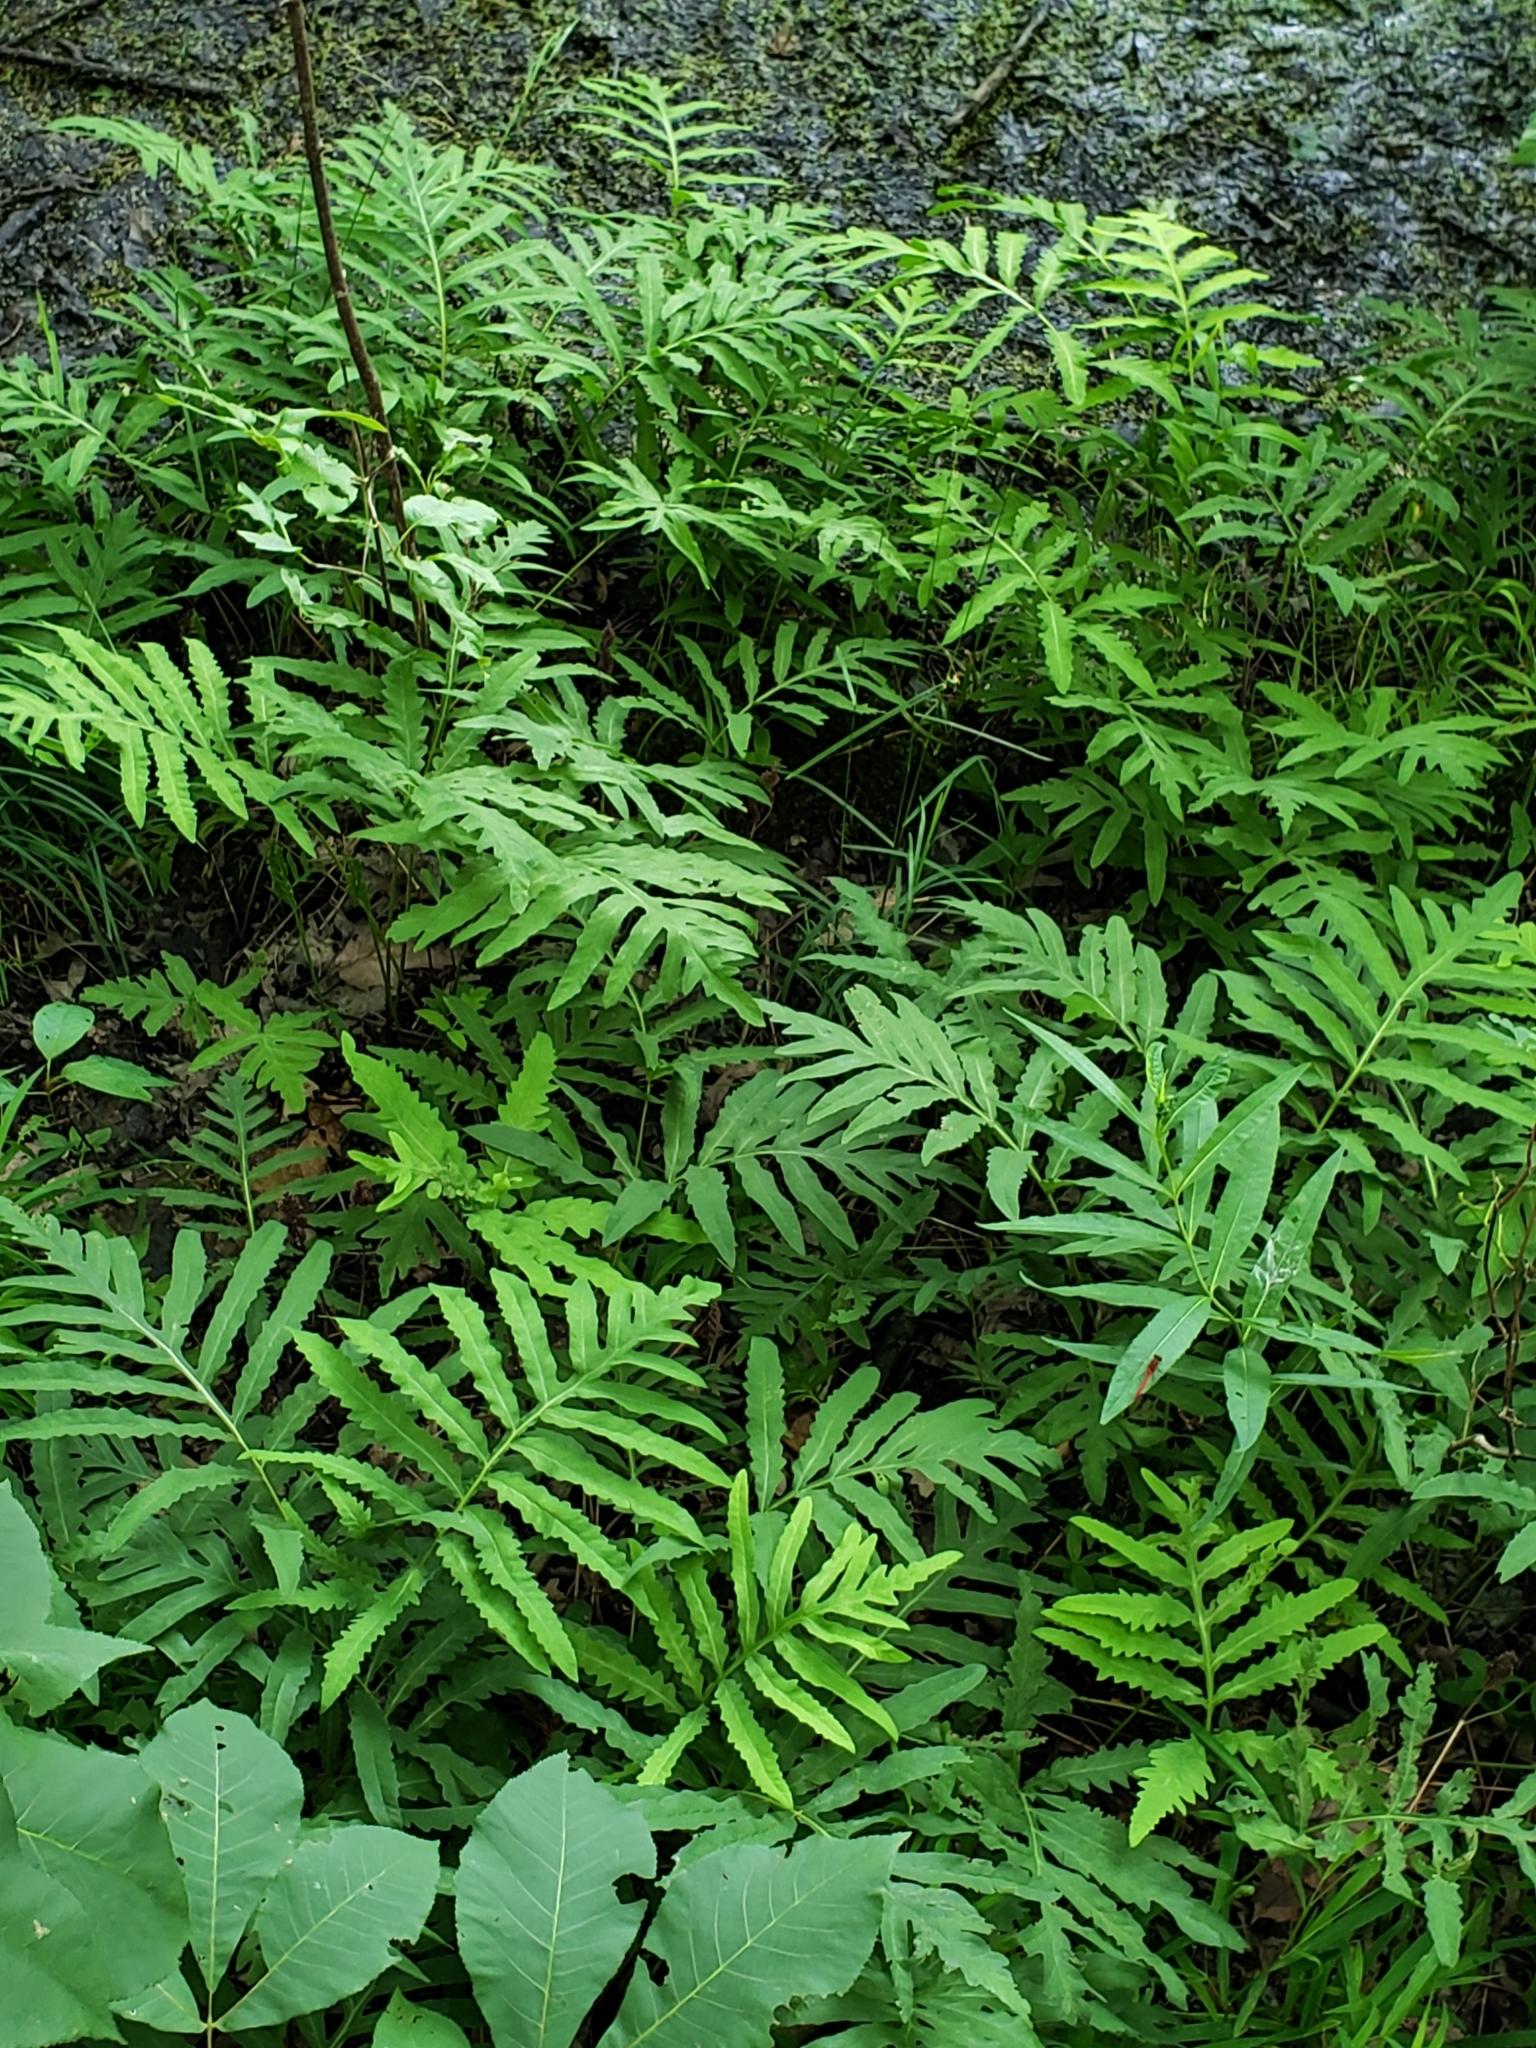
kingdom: Plantae
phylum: Tracheophyta
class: Polypodiopsida
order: Polypodiales
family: Onocleaceae
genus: Onoclea
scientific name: Onoclea sensibilis
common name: Sensitive fern
